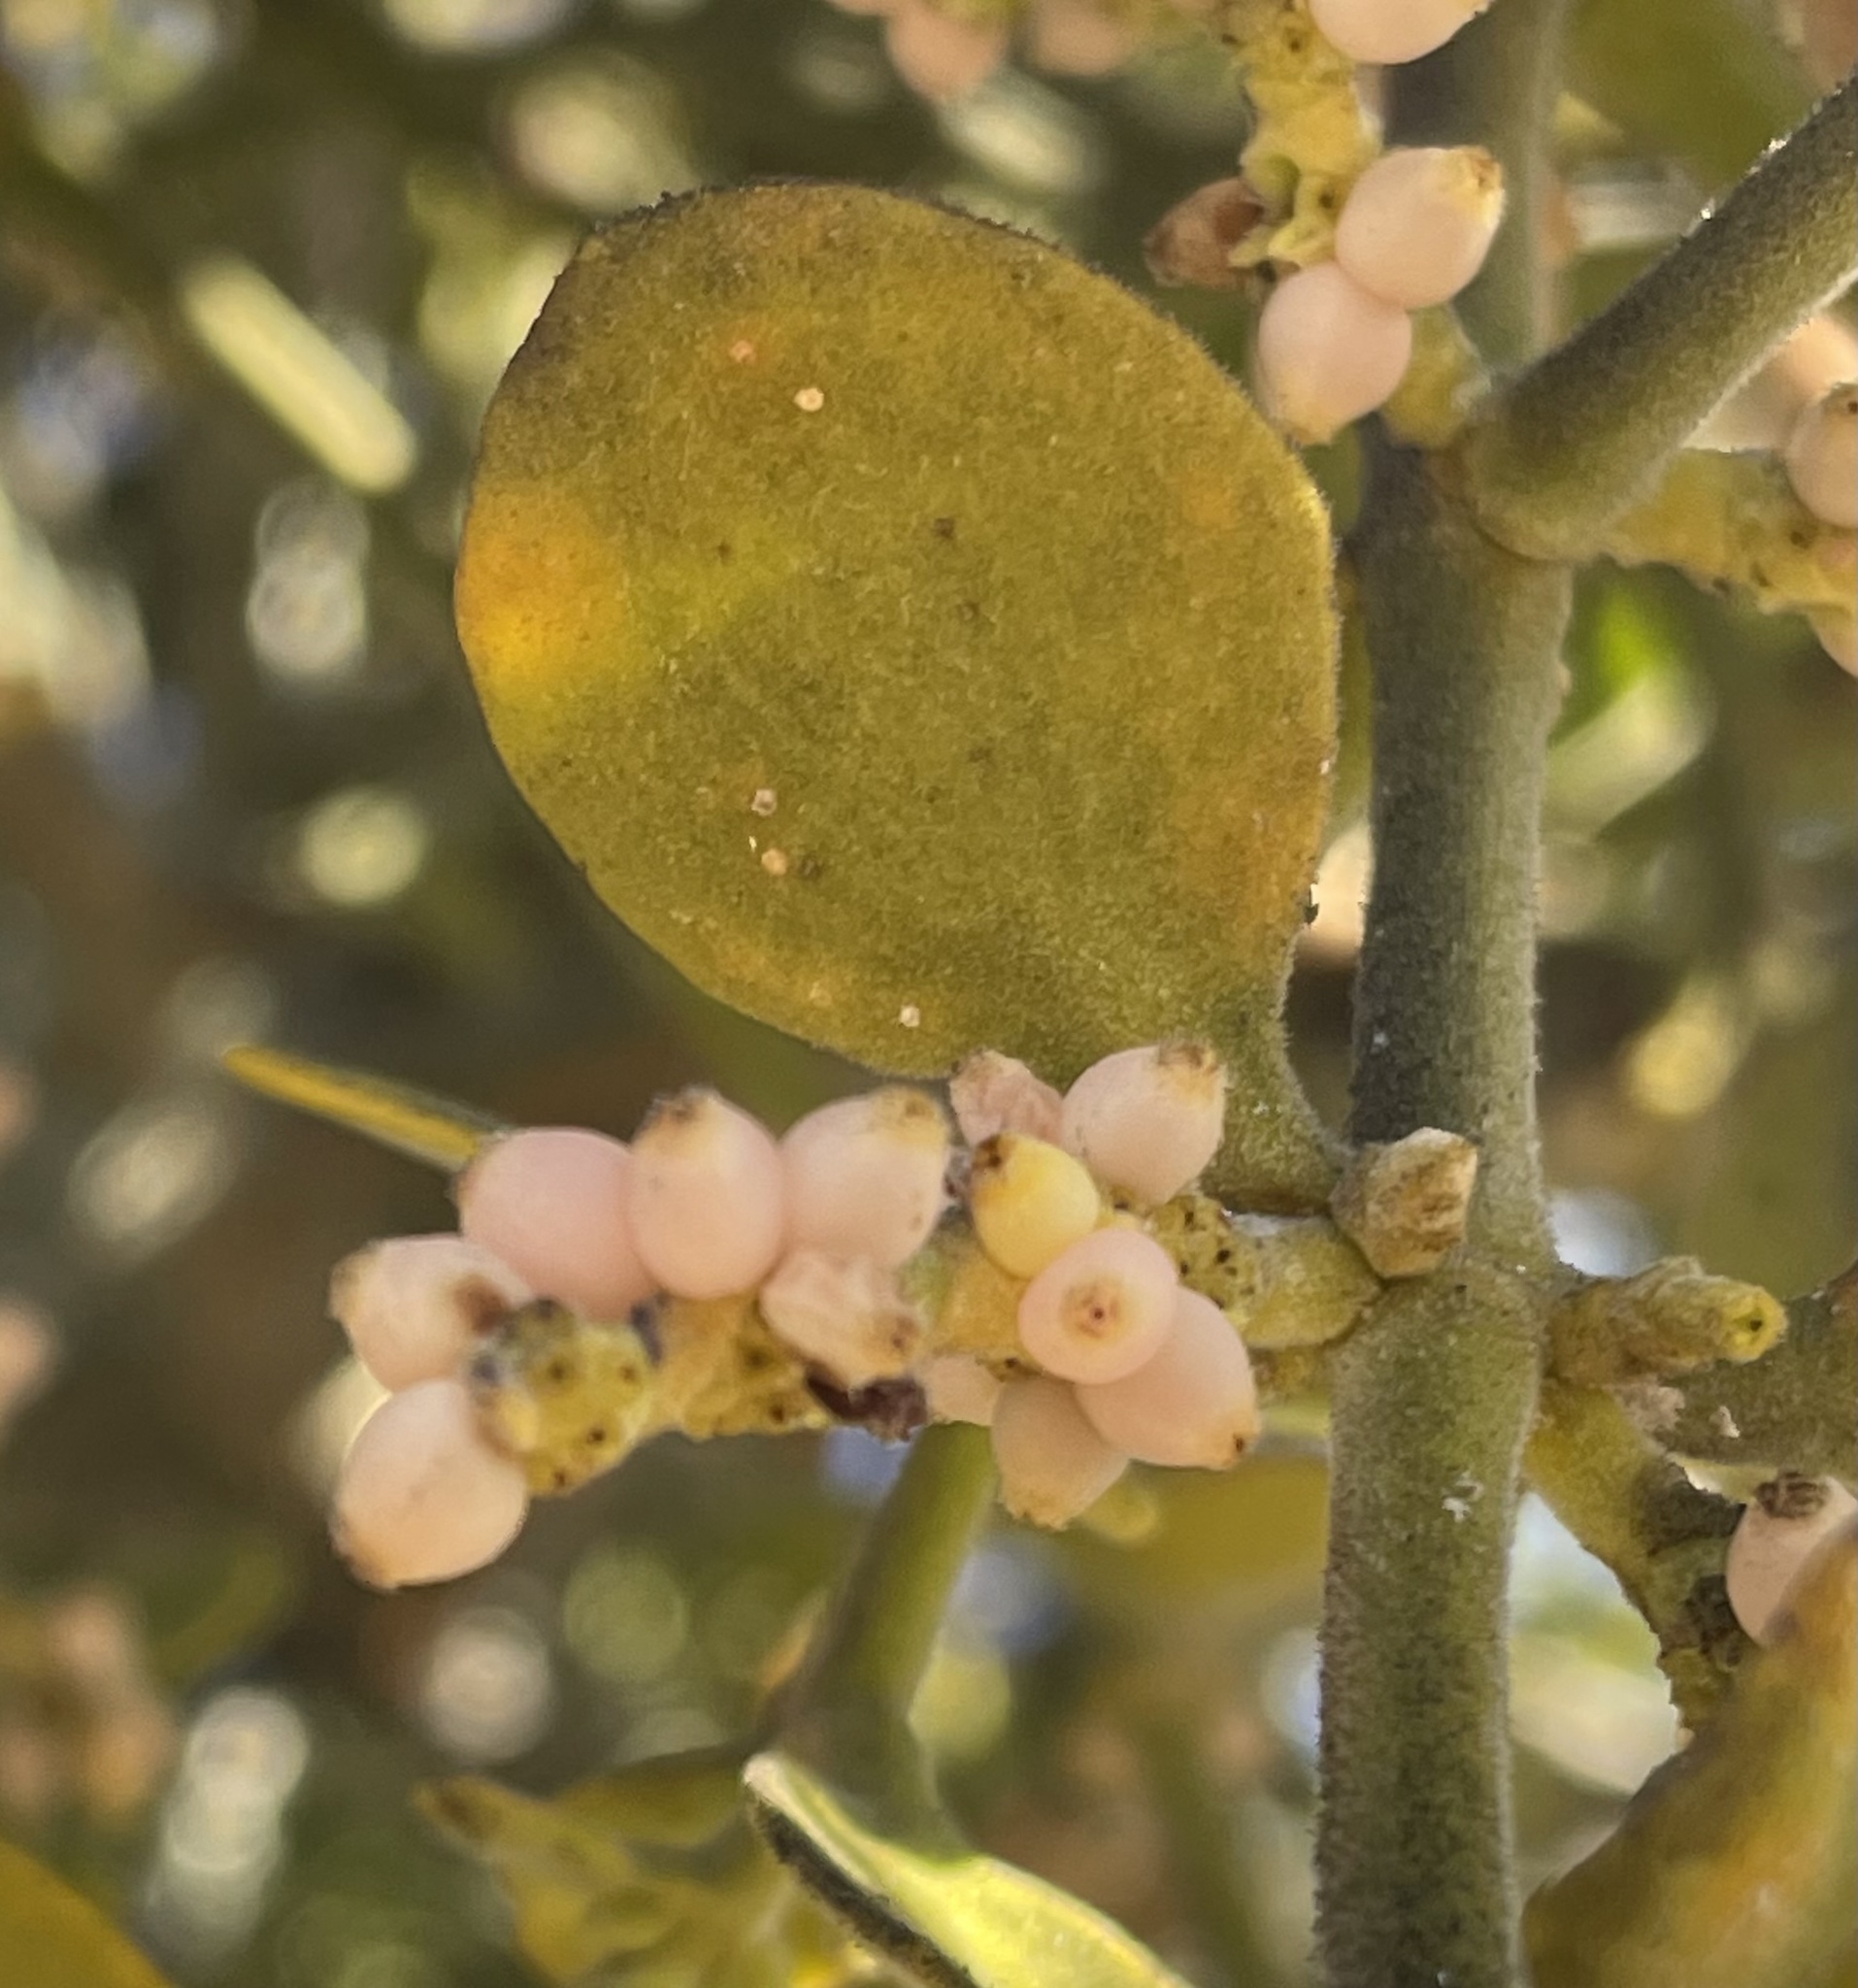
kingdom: Plantae
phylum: Tracheophyta
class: Magnoliopsida
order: Santalales
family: Viscaceae
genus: Phoradendron
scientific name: Phoradendron leucarpum
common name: Pacific mistletoe
